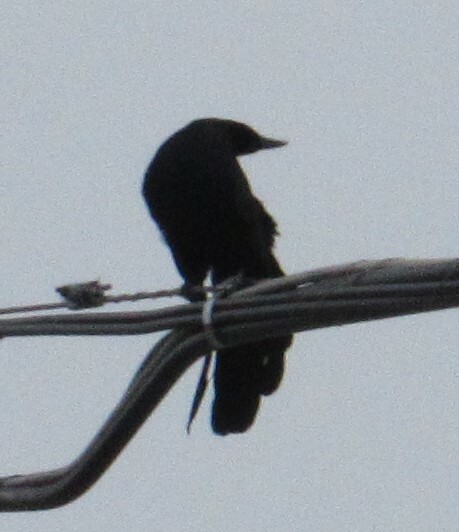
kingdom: Animalia
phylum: Chordata
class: Aves
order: Passeriformes
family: Icteridae
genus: Quiscalus
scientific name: Quiscalus mexicanus
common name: Great-tailed grackle
